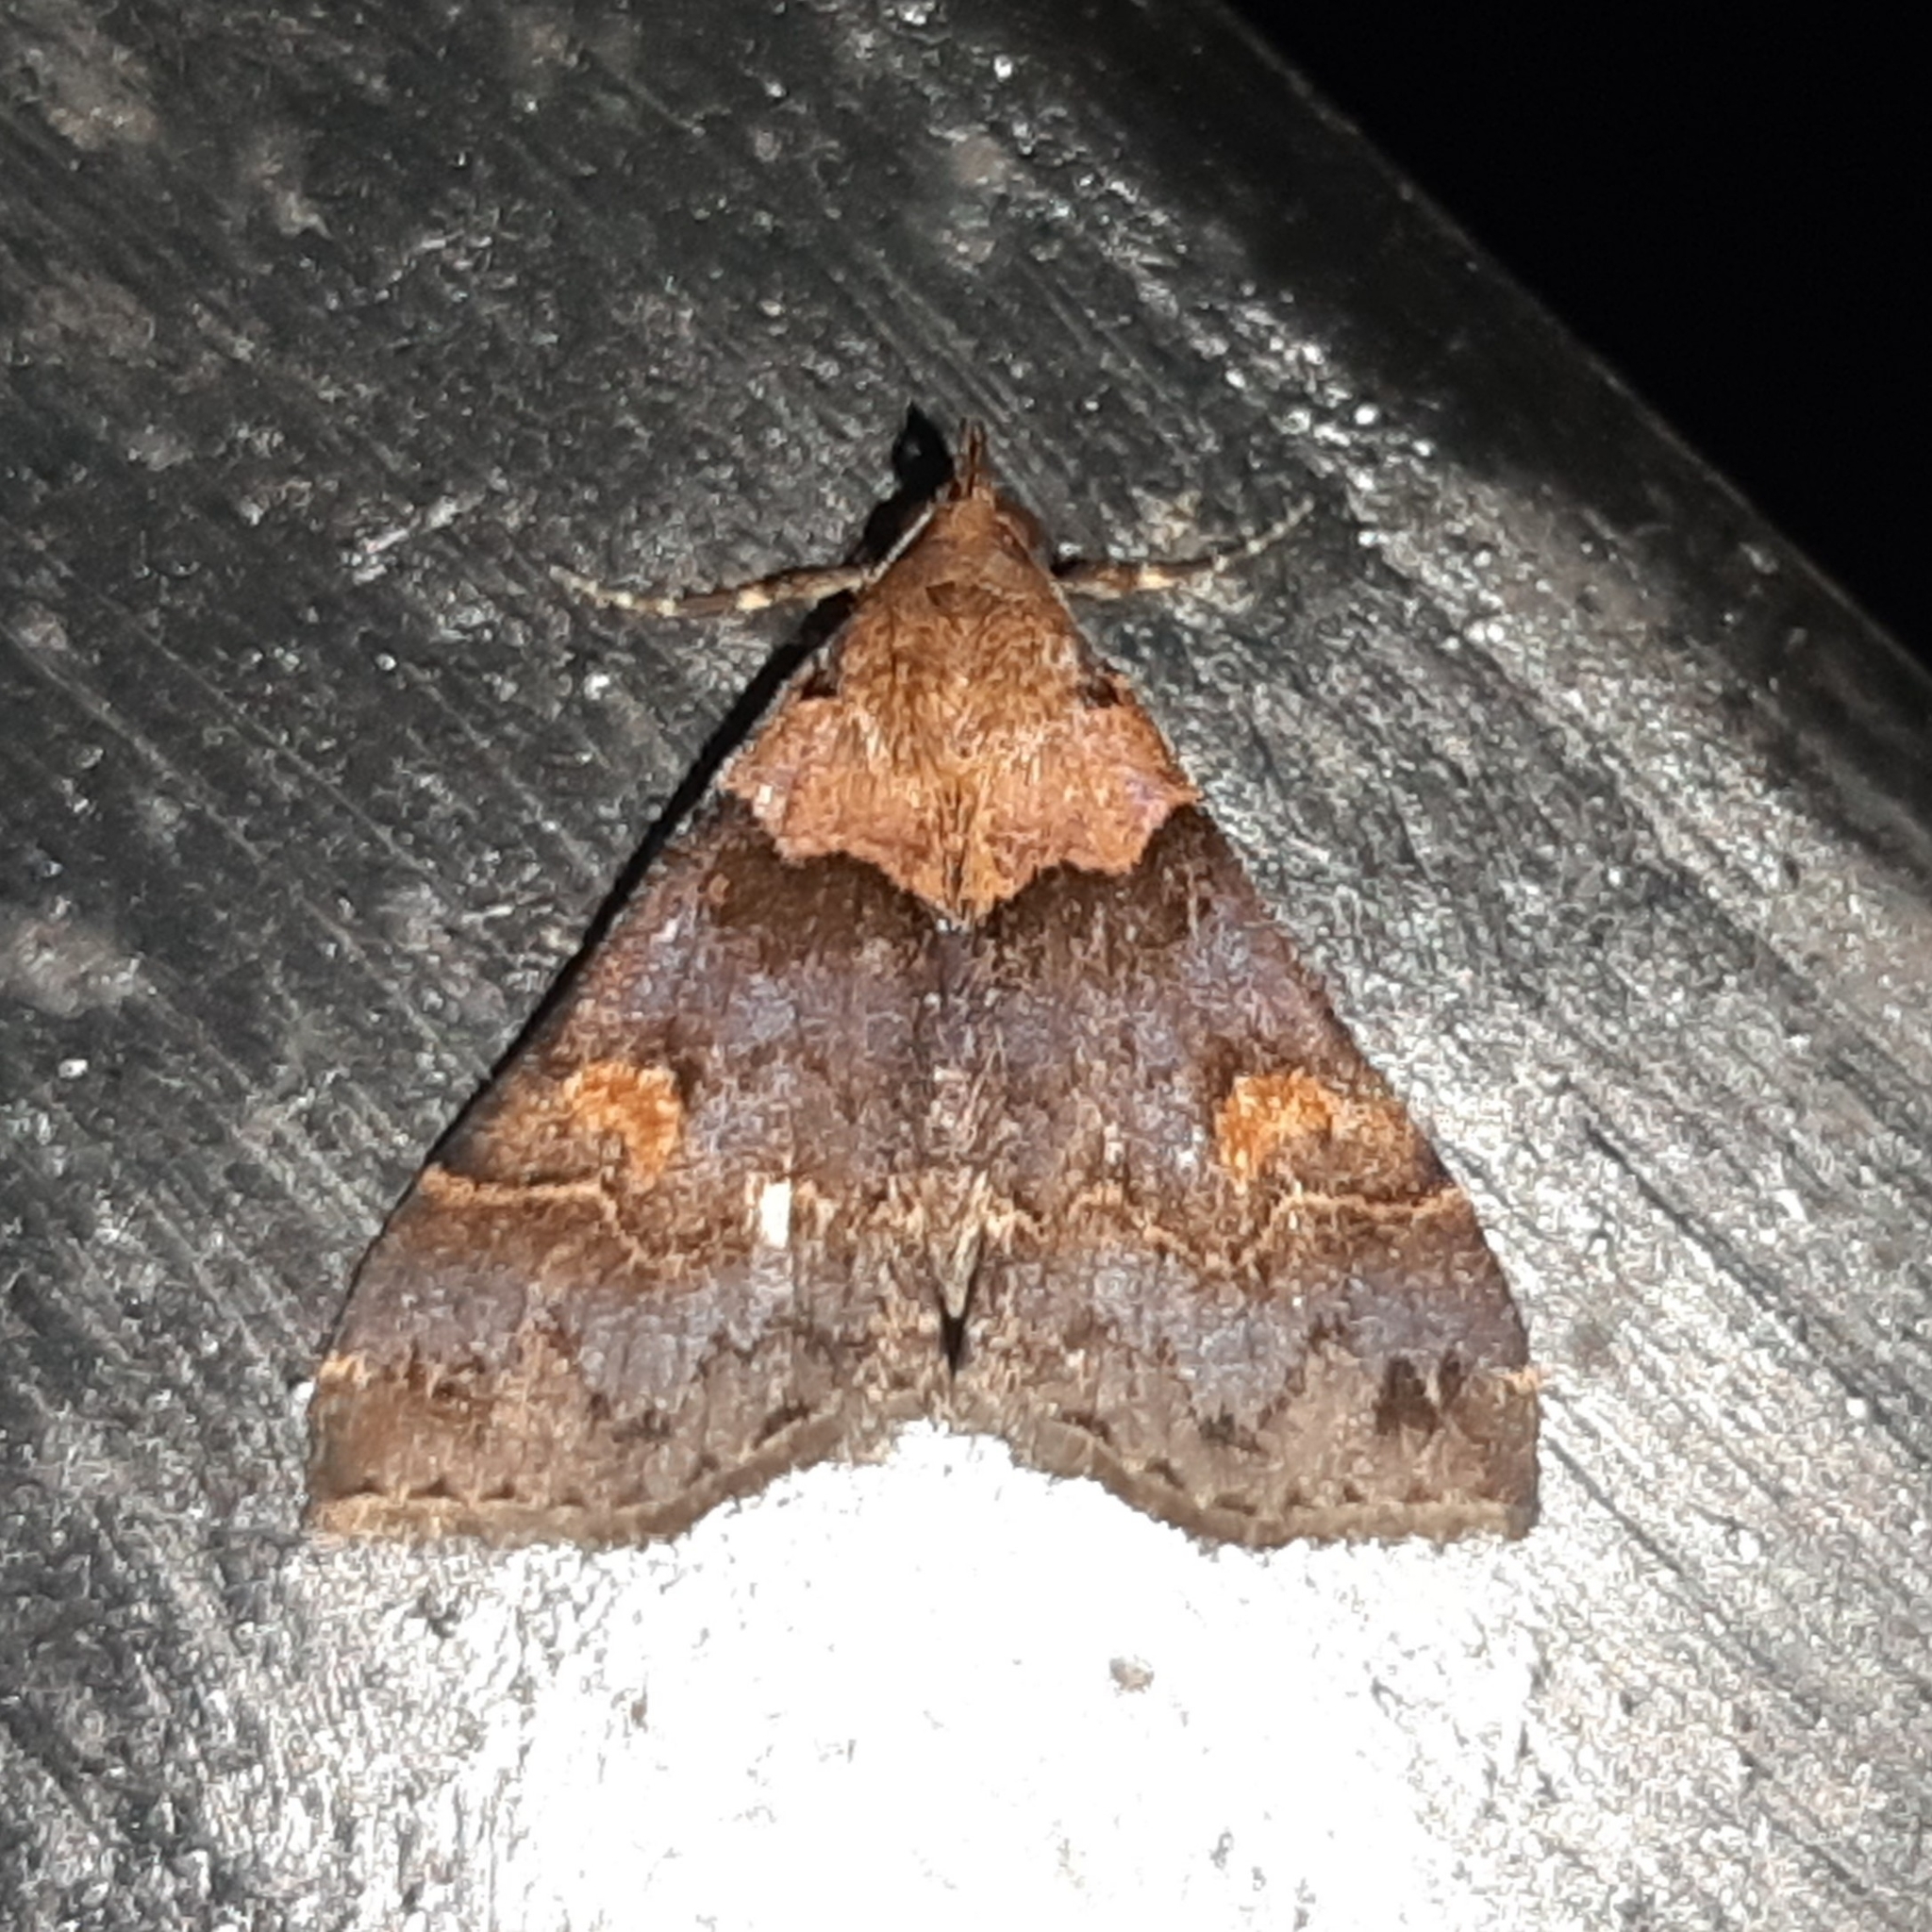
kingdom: Animalia
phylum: Arthropoda
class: Insecta
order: Lepidoptera
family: Erebidae
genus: Mastixis
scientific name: Mastixis tessellata
